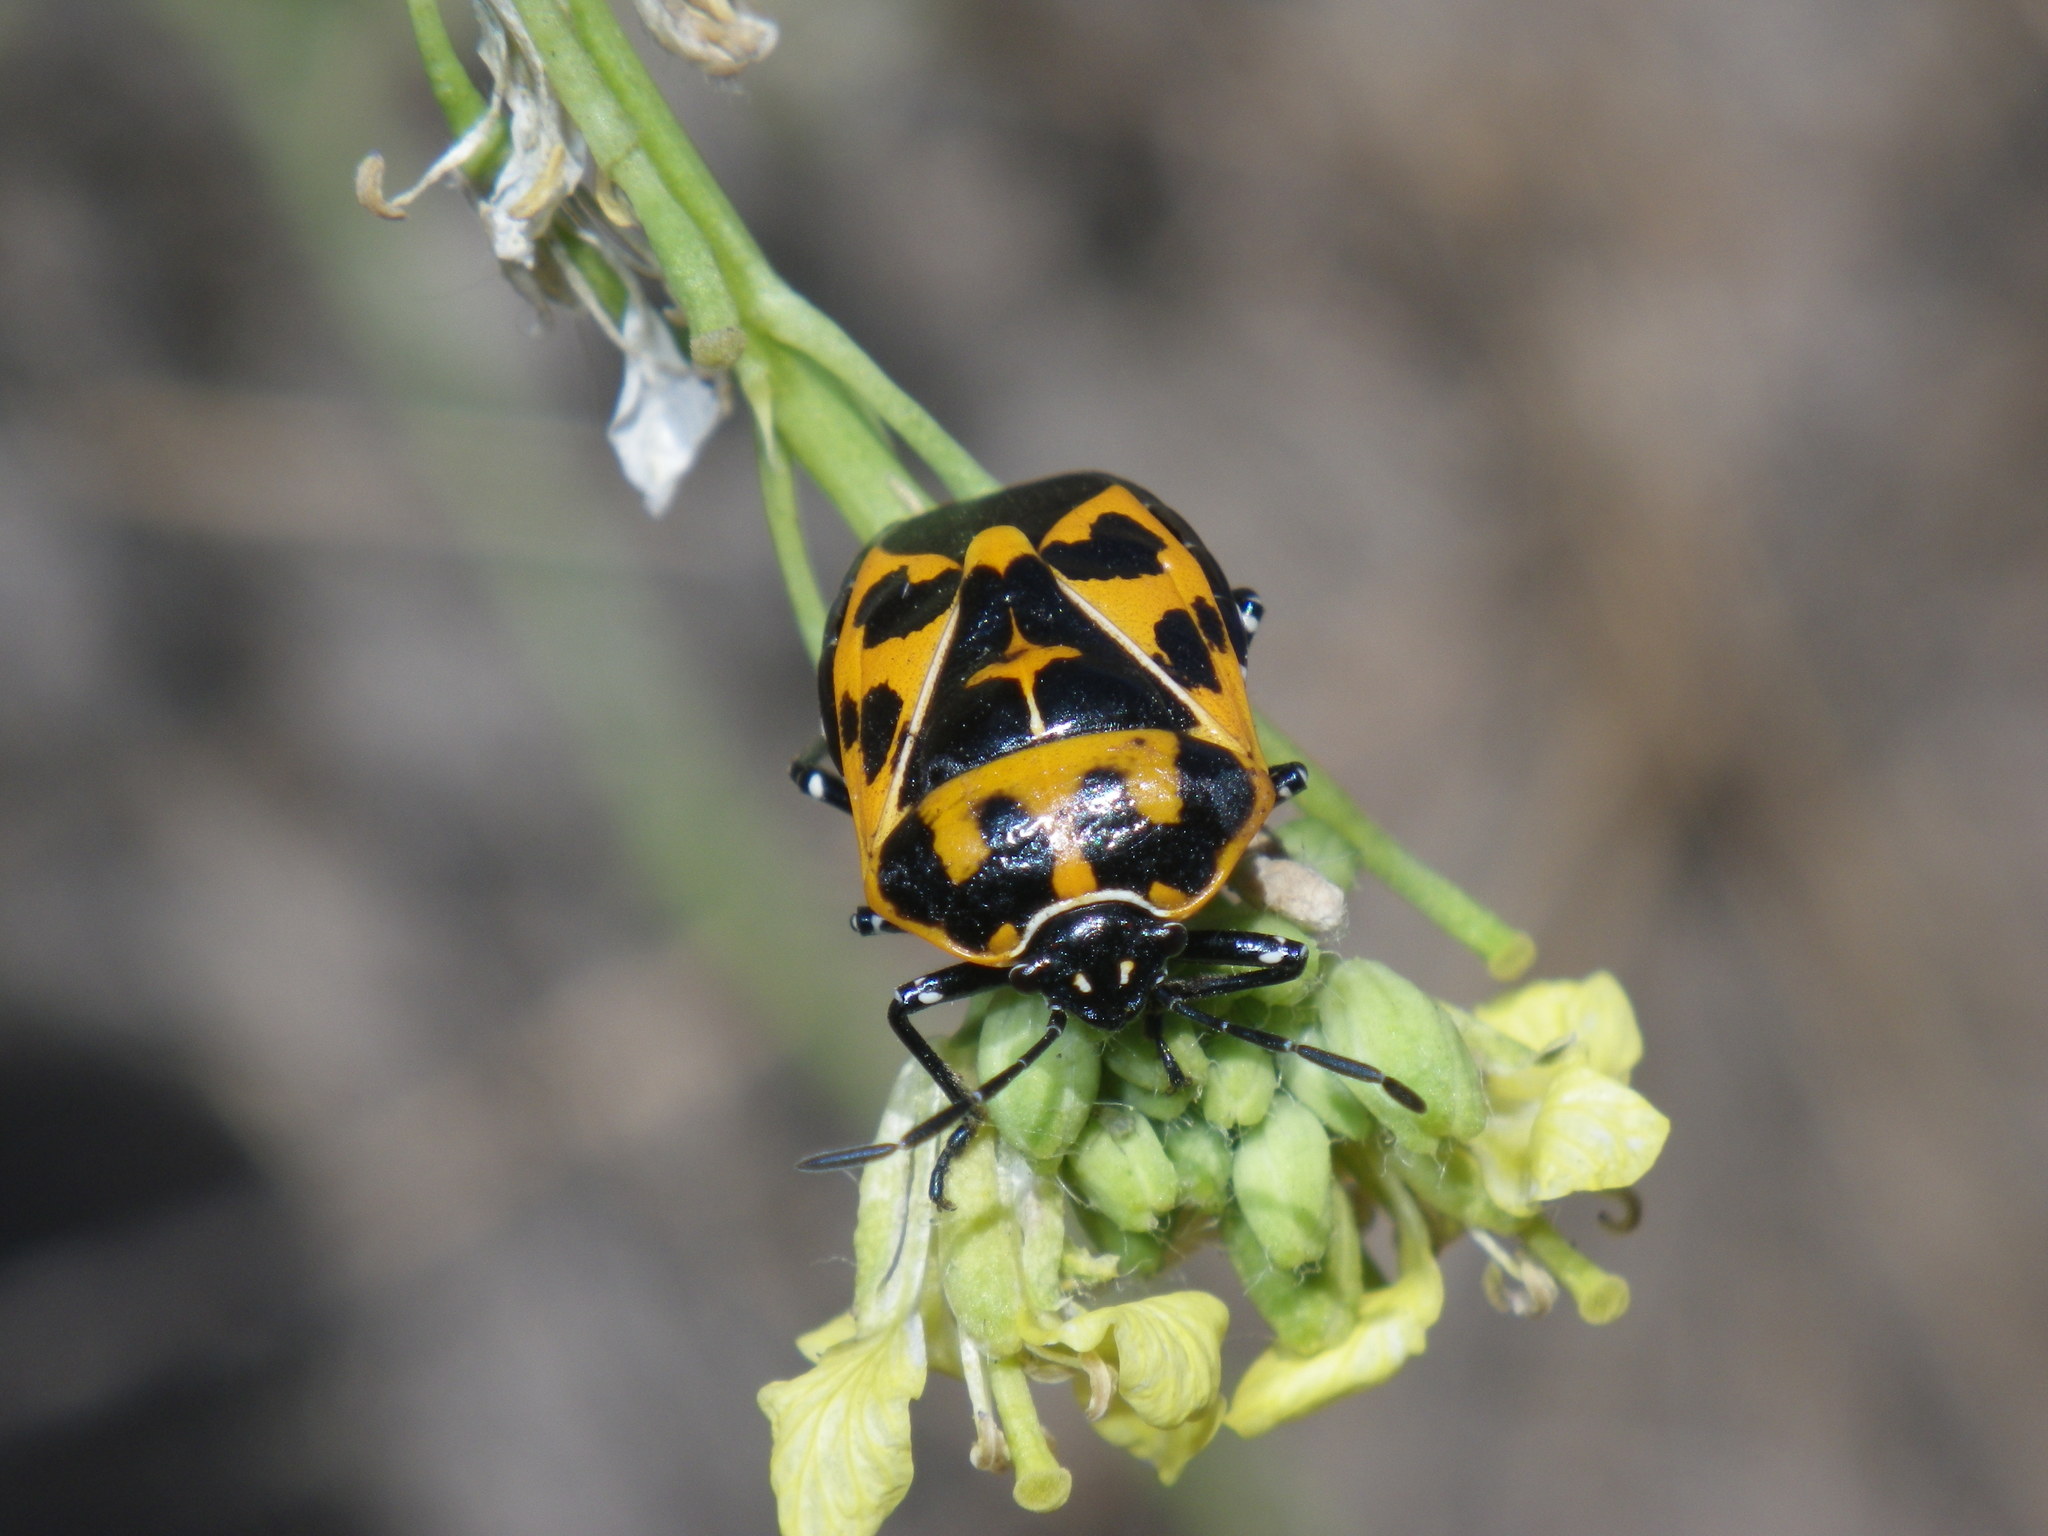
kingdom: Animalia
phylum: Arthropoda
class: Insecta
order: Hemiptera
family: Pentatomidae
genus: Murgantia
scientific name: Murgantia histrionica
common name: Harlequin bug
